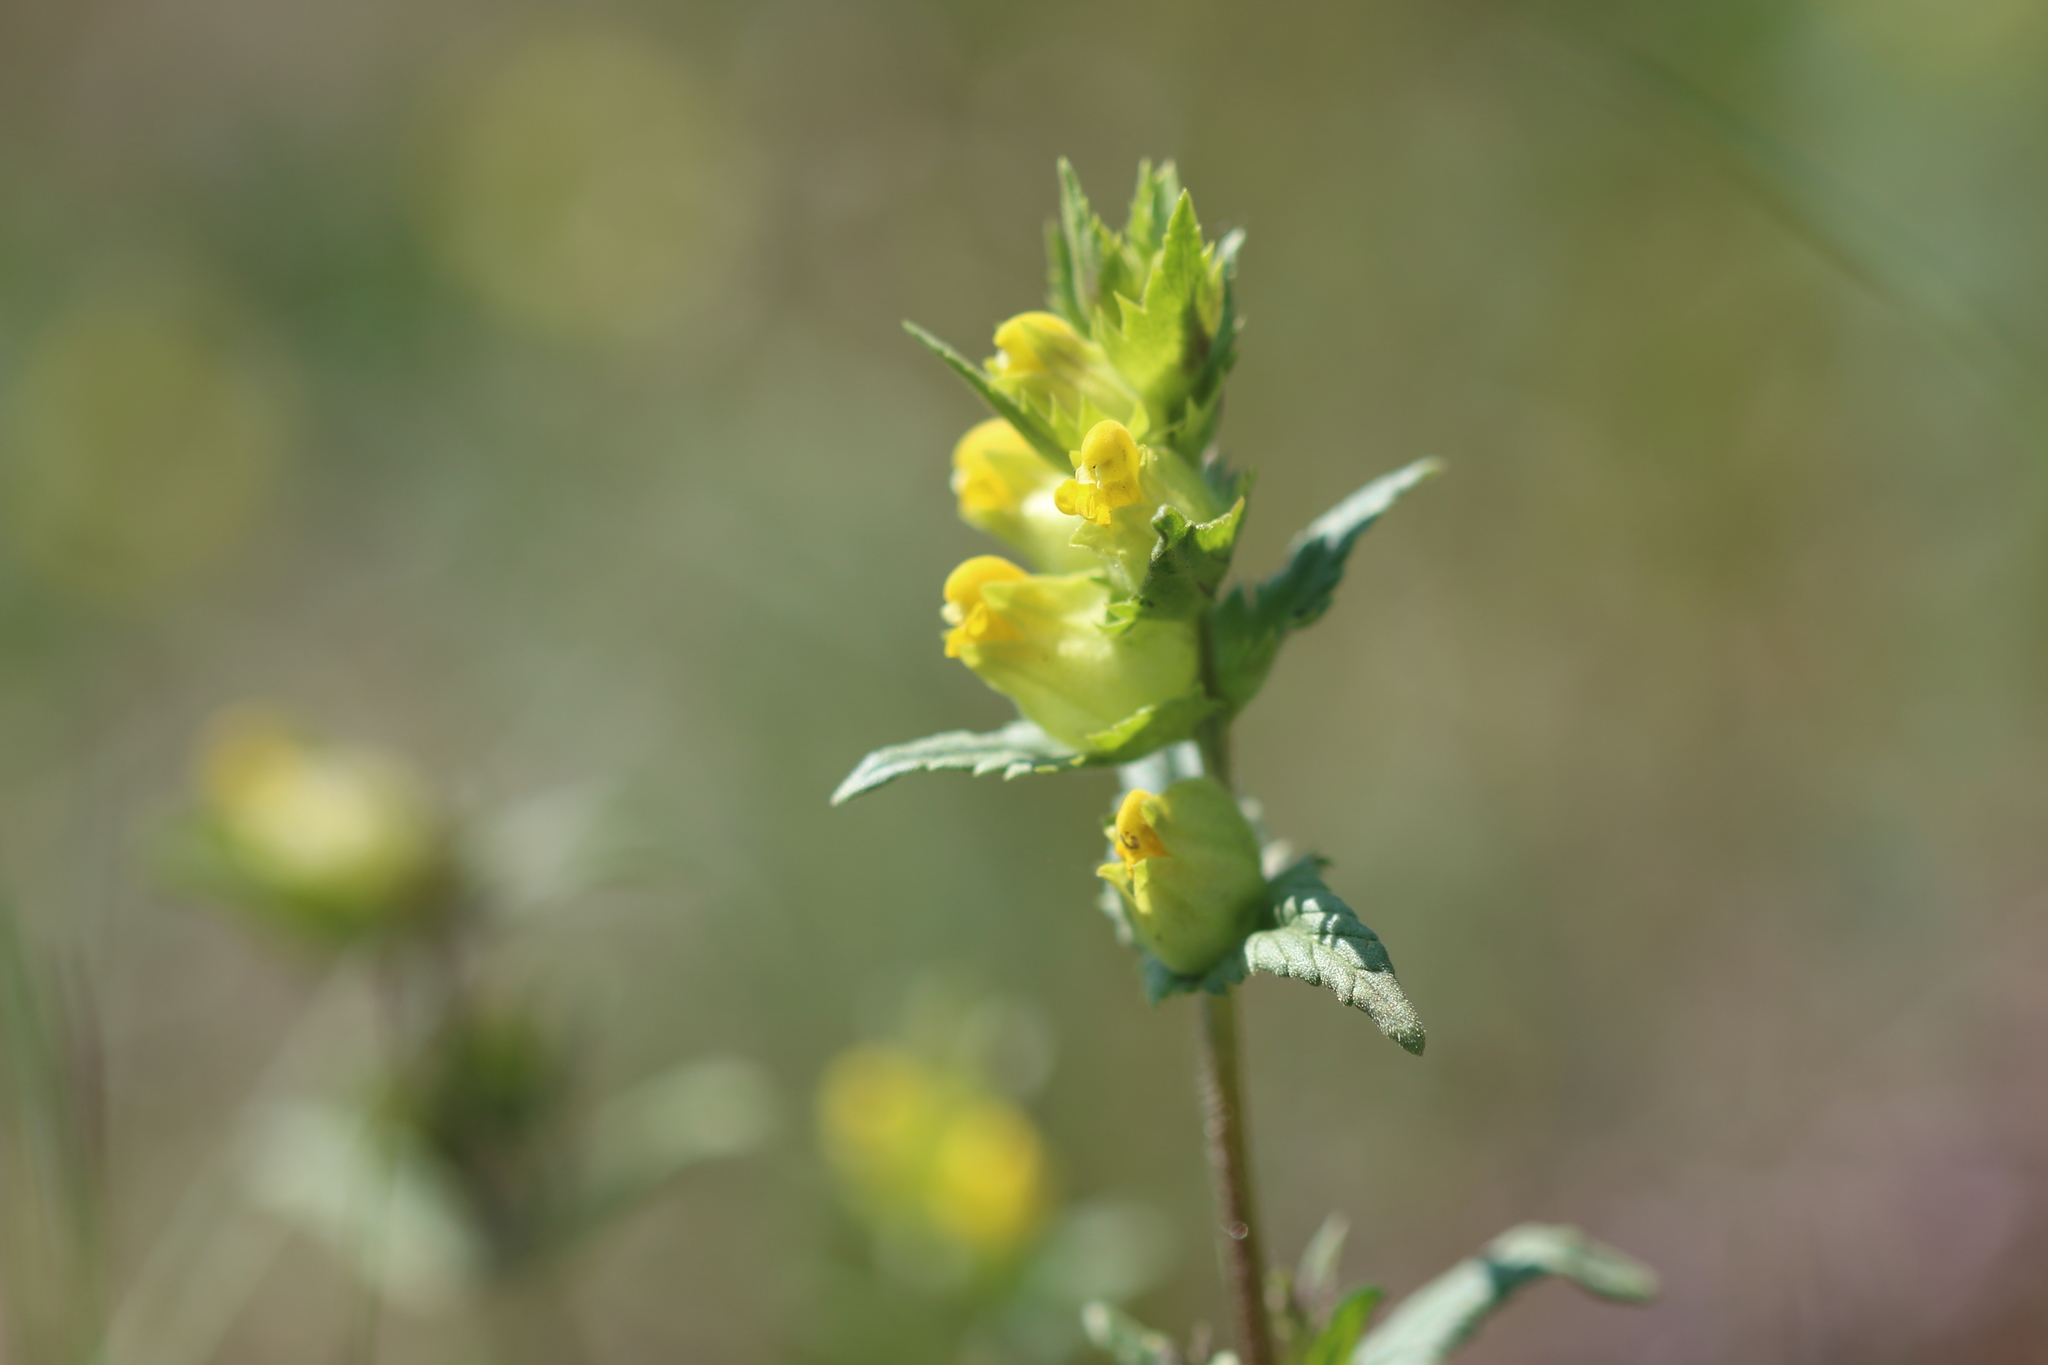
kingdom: Plantae
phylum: Tracheophyta
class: Magnoliopsida
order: Lamiales
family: Orobanchaceae
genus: Rhinanthus
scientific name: Rhinanthus groenlandicus
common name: Little yellow rattle
